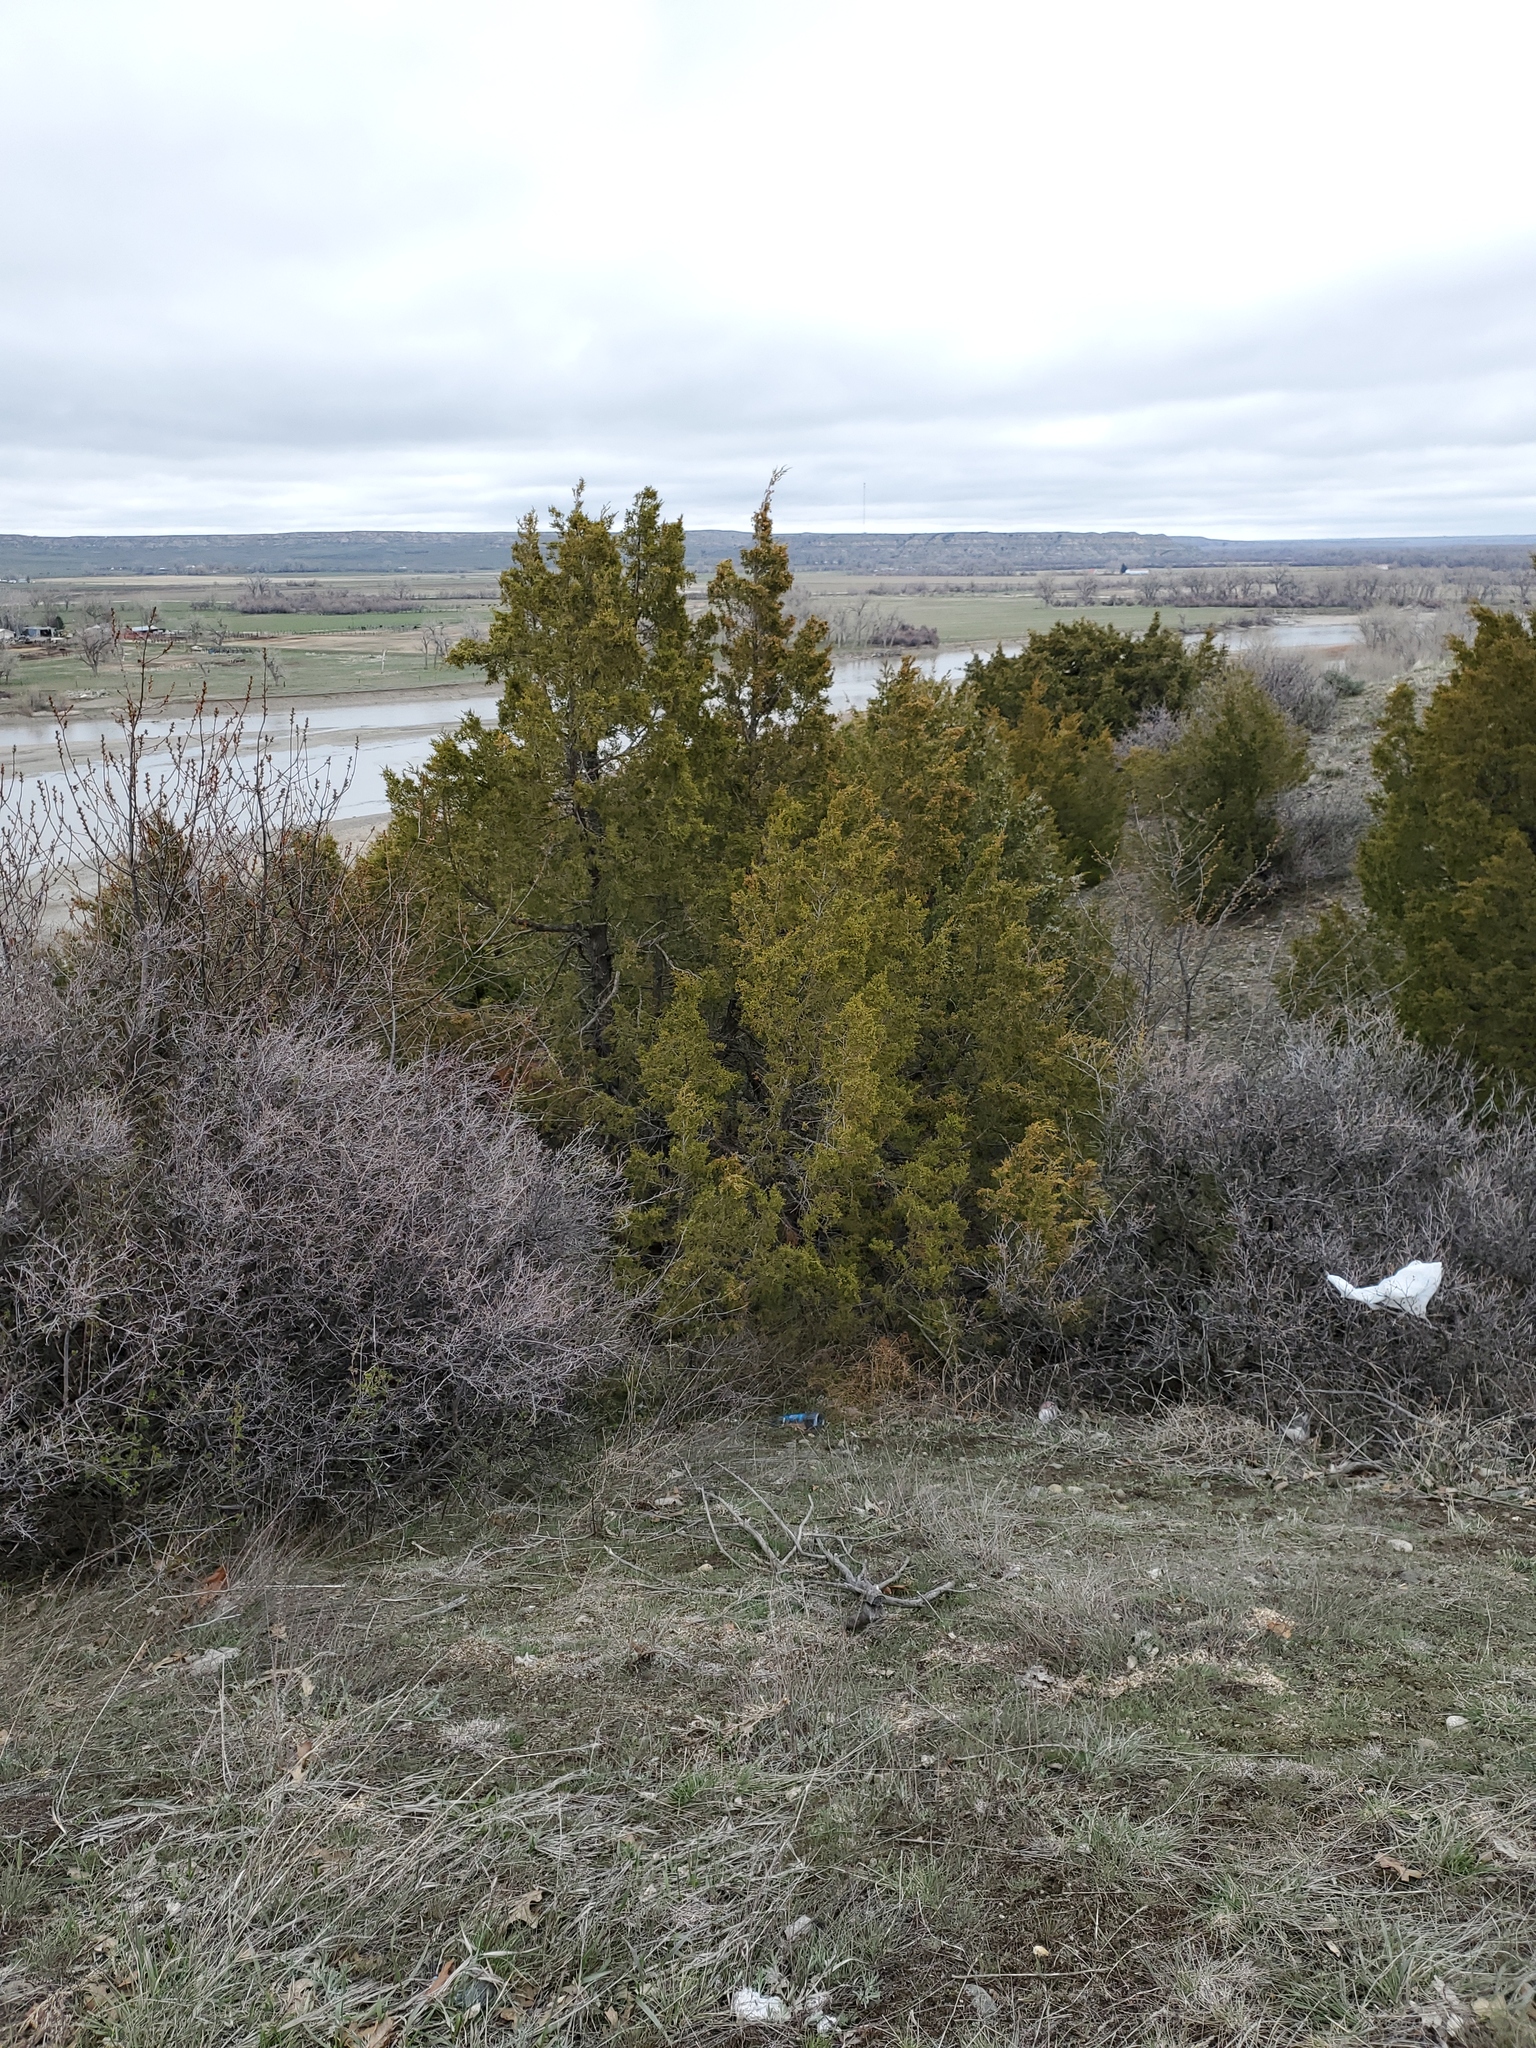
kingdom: Plantae
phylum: Tracheophyta
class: Pinopsida
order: Pinales
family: Cupressaceae
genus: Juniperus
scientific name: Juniperus scopulorum
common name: Rocky mountain juniper
